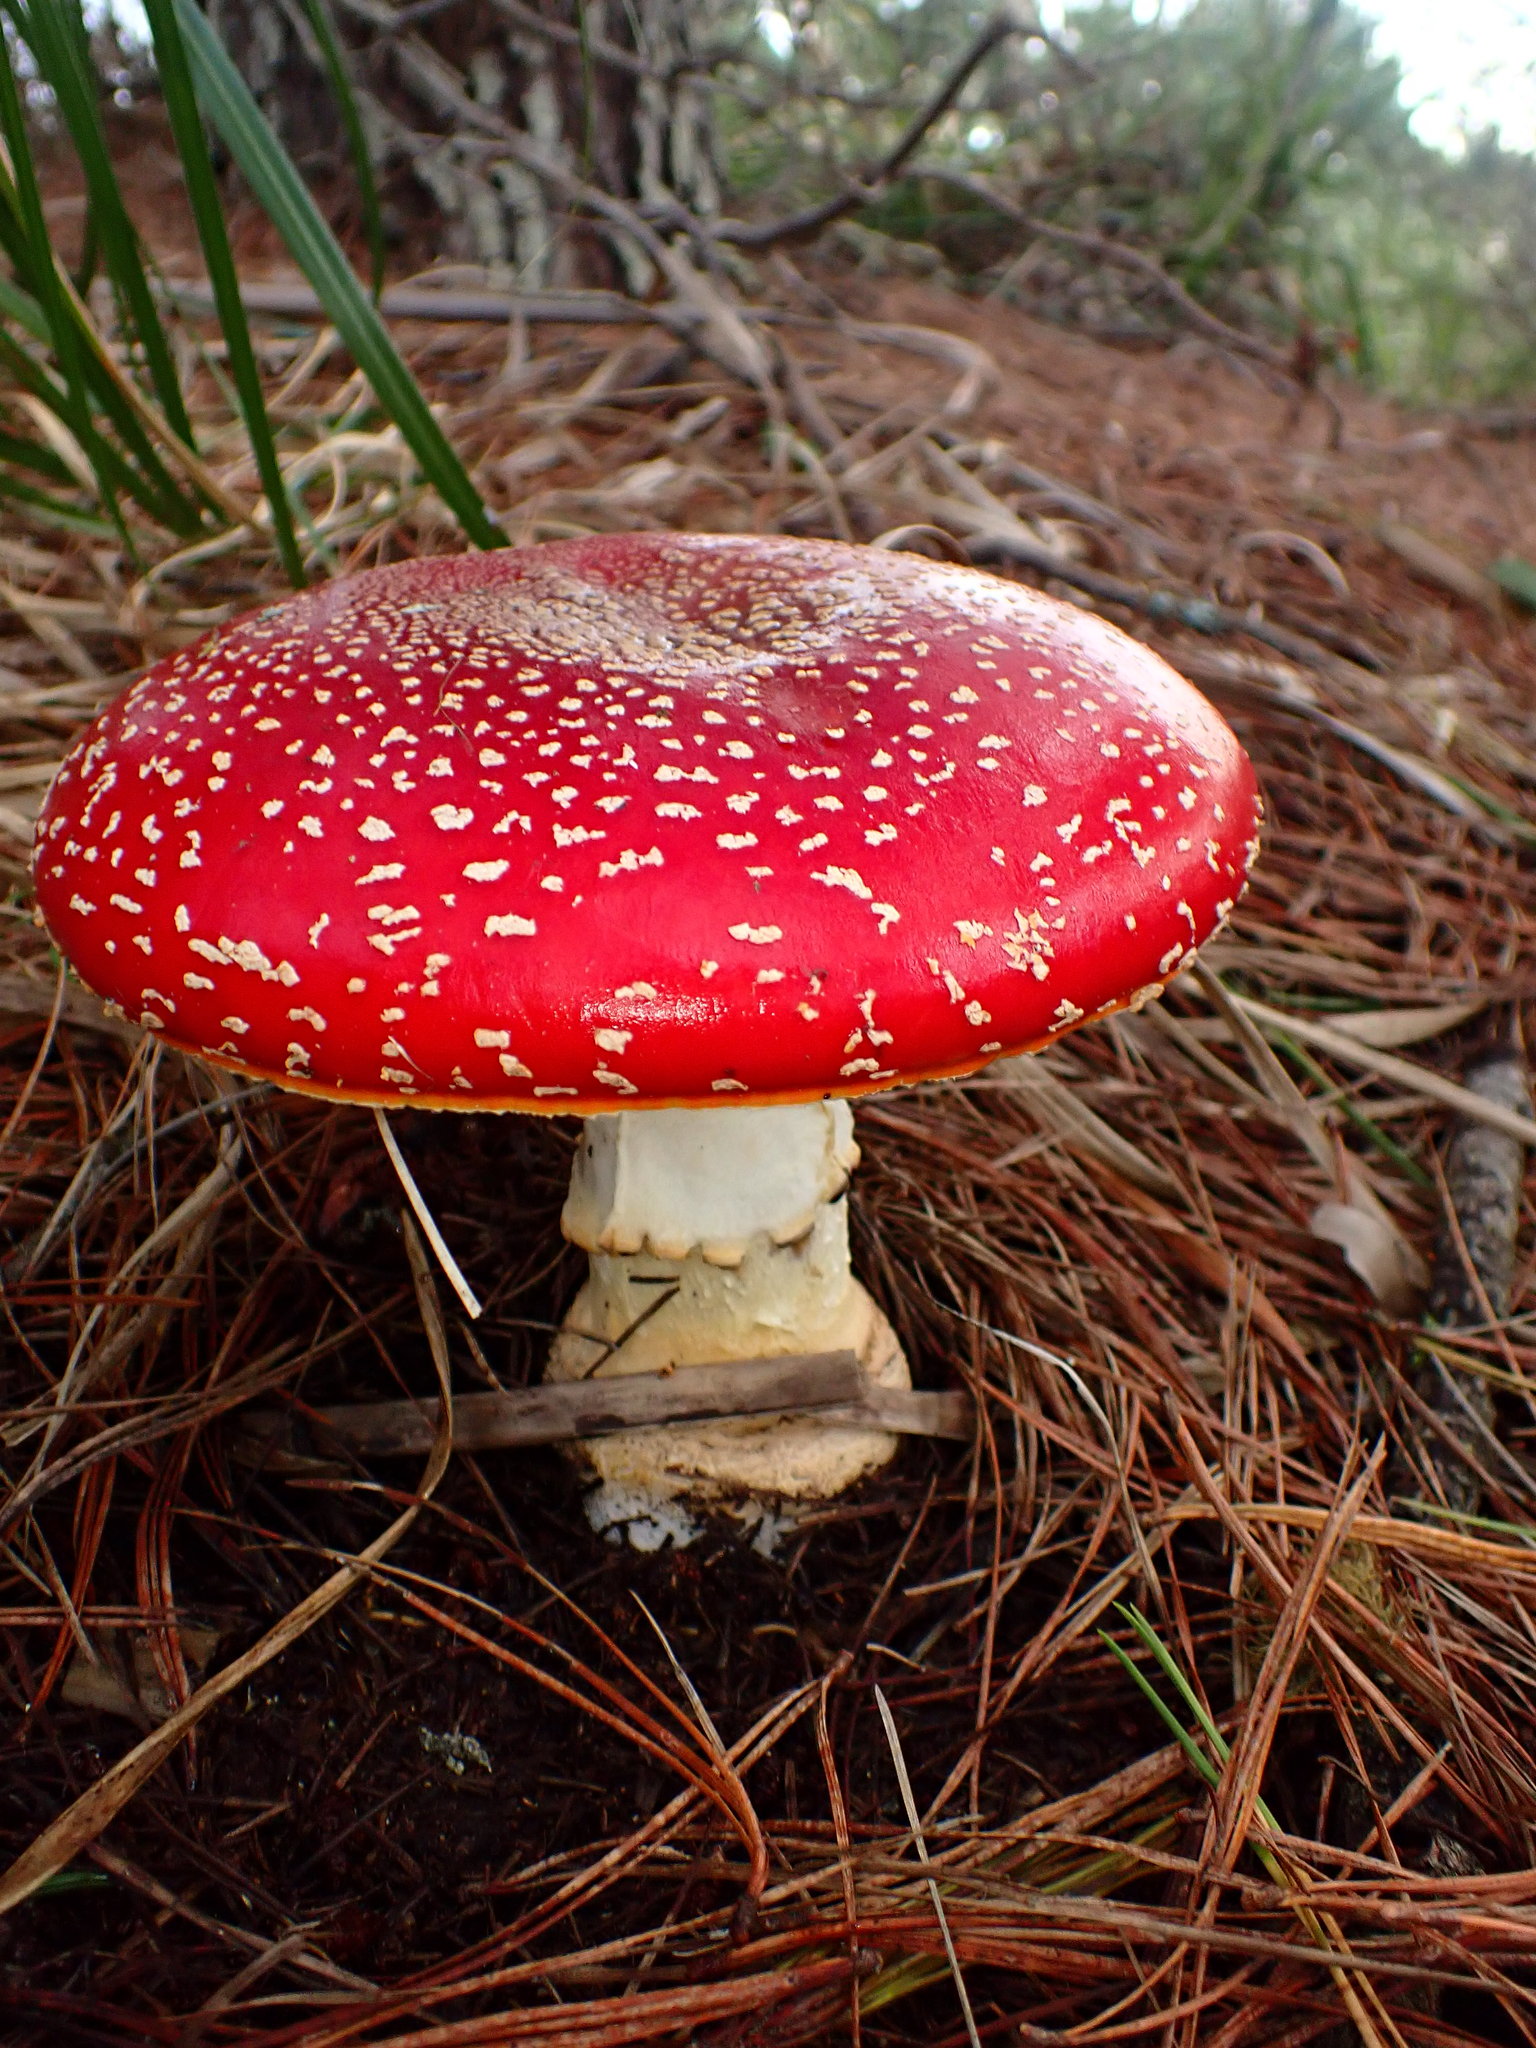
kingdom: Fungi
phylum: Basidiomycota
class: Agaricomycetes
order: Agaricales
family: Amanitaceae
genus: Amanita
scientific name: Amanita muscaria
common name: Fly agaric
